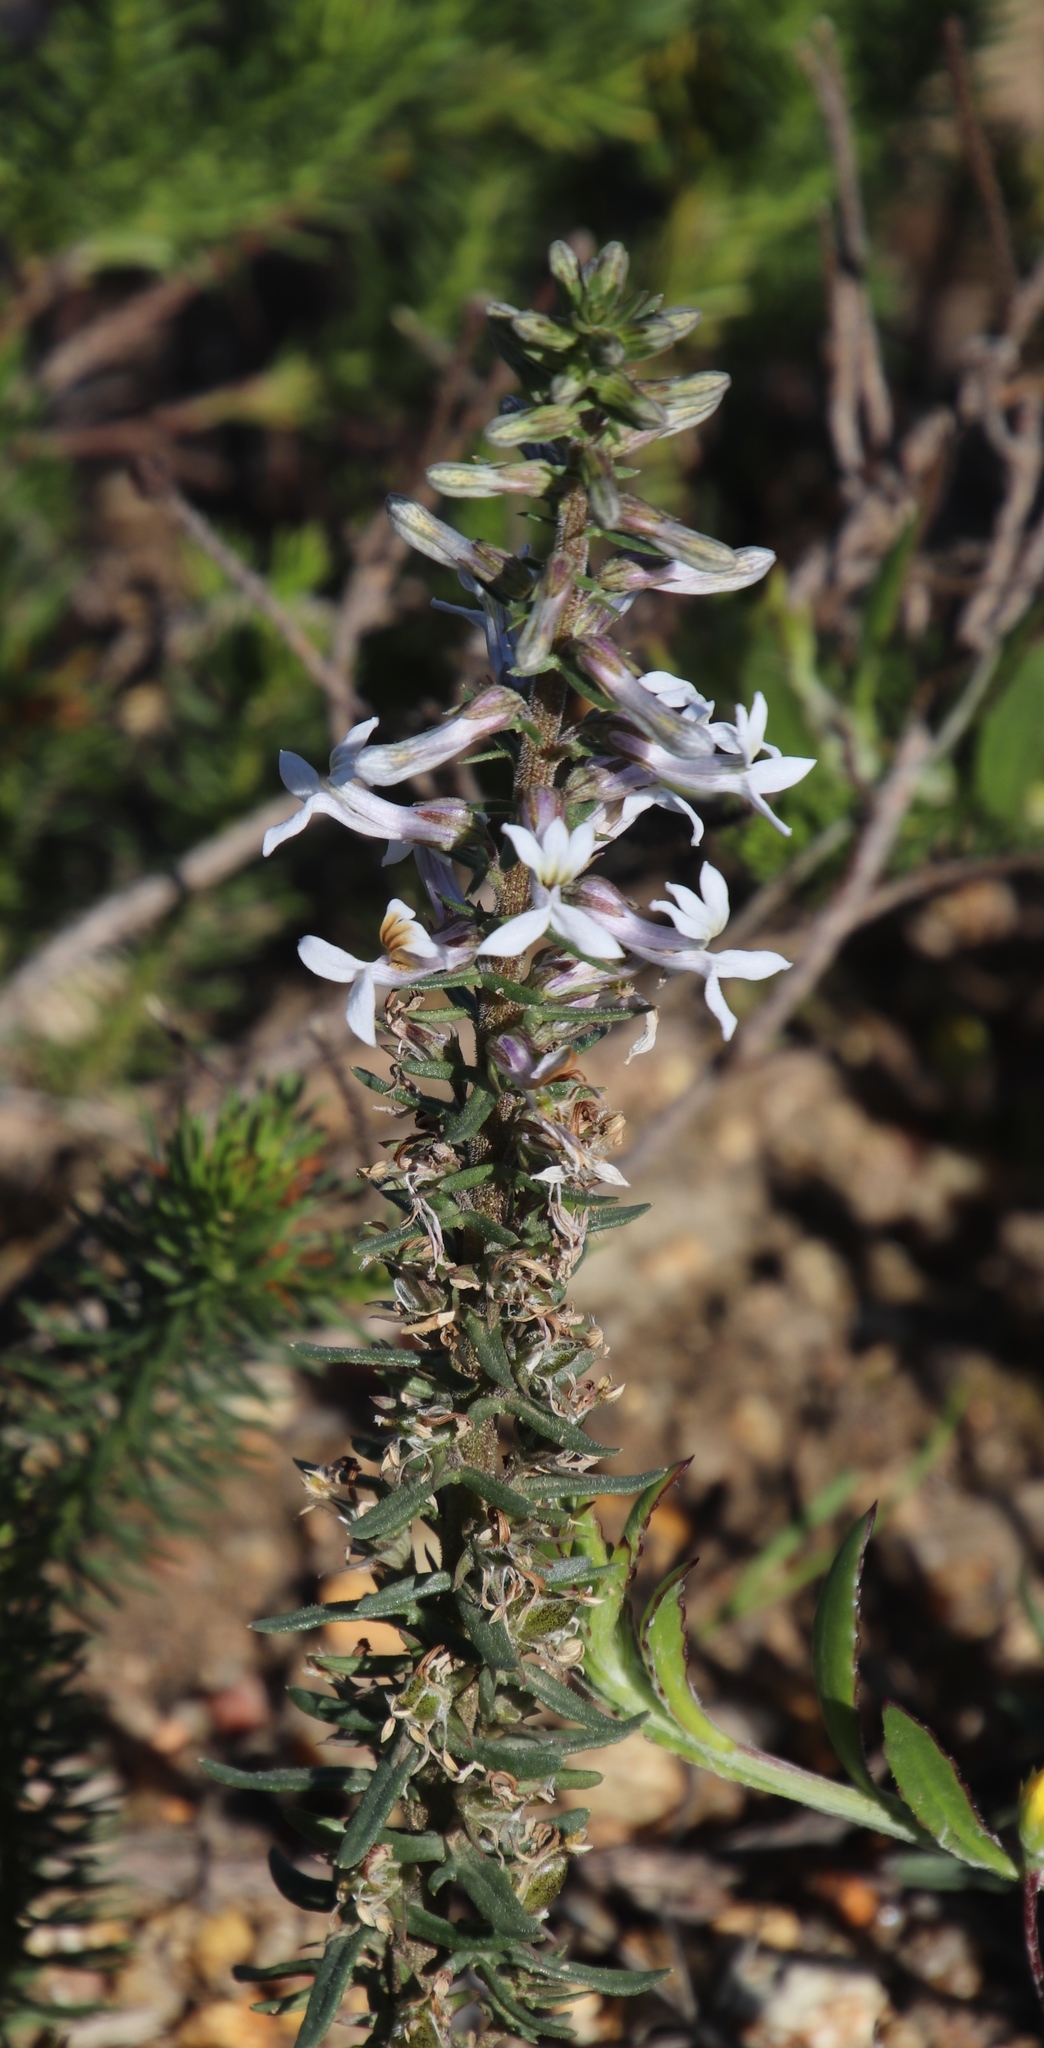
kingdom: Plantae
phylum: Tracheophyta
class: Magnoliopsida
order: Asterales
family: Campanulaceae
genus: Cyphia
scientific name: Cyphia bulbosa
